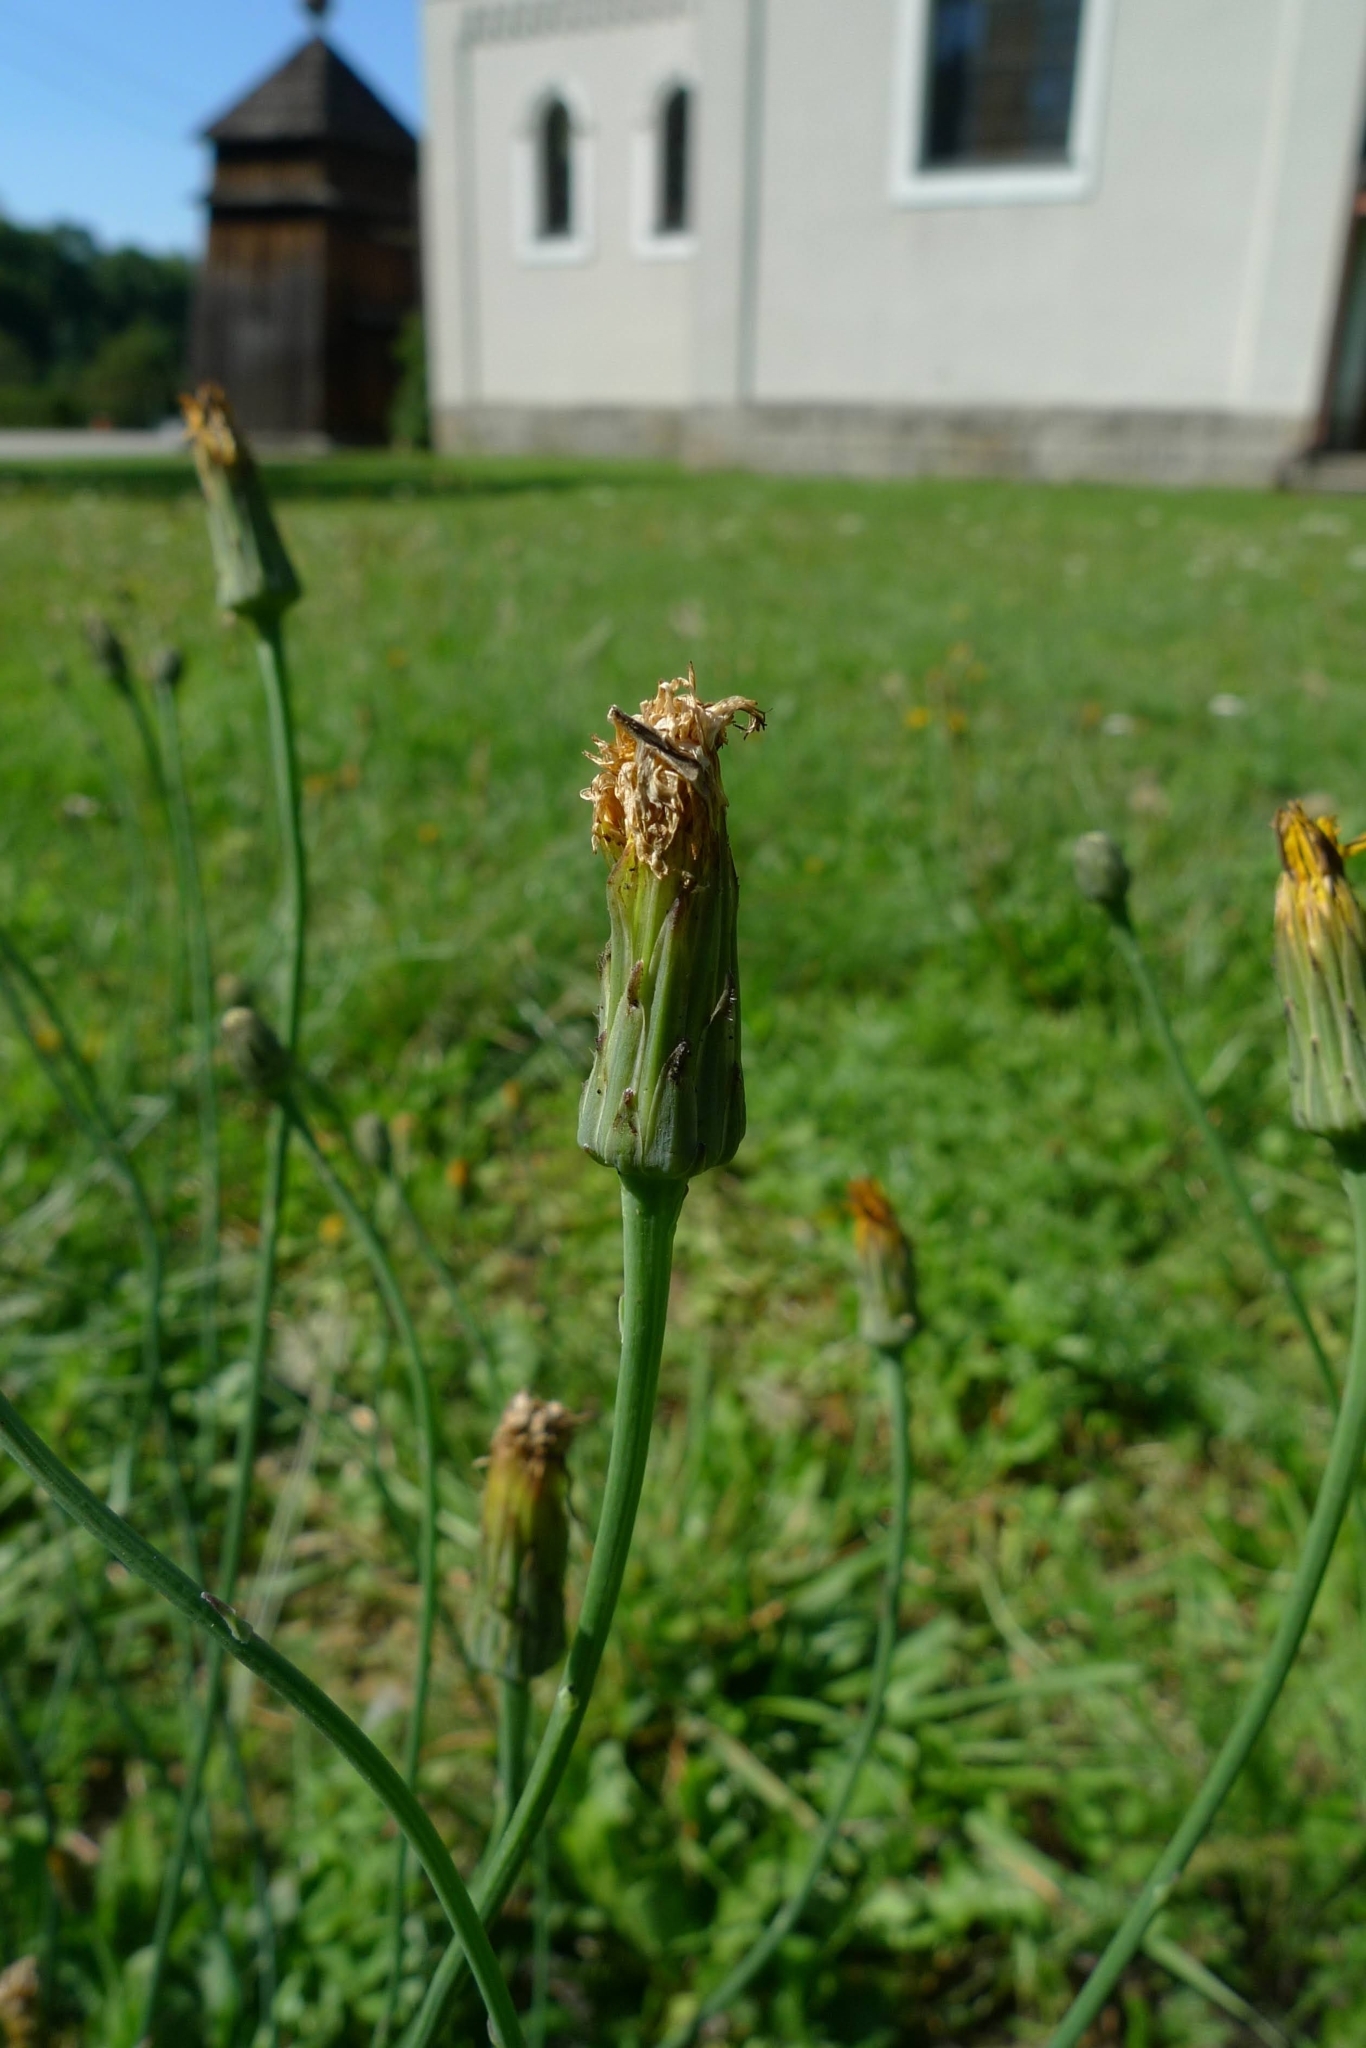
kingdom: Plantae
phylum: Tracheophyta
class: Magnoliopsida
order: Asterales
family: Asteraceae
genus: Hypochaeris
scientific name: Hypochaeris radicata
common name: Flatweed
